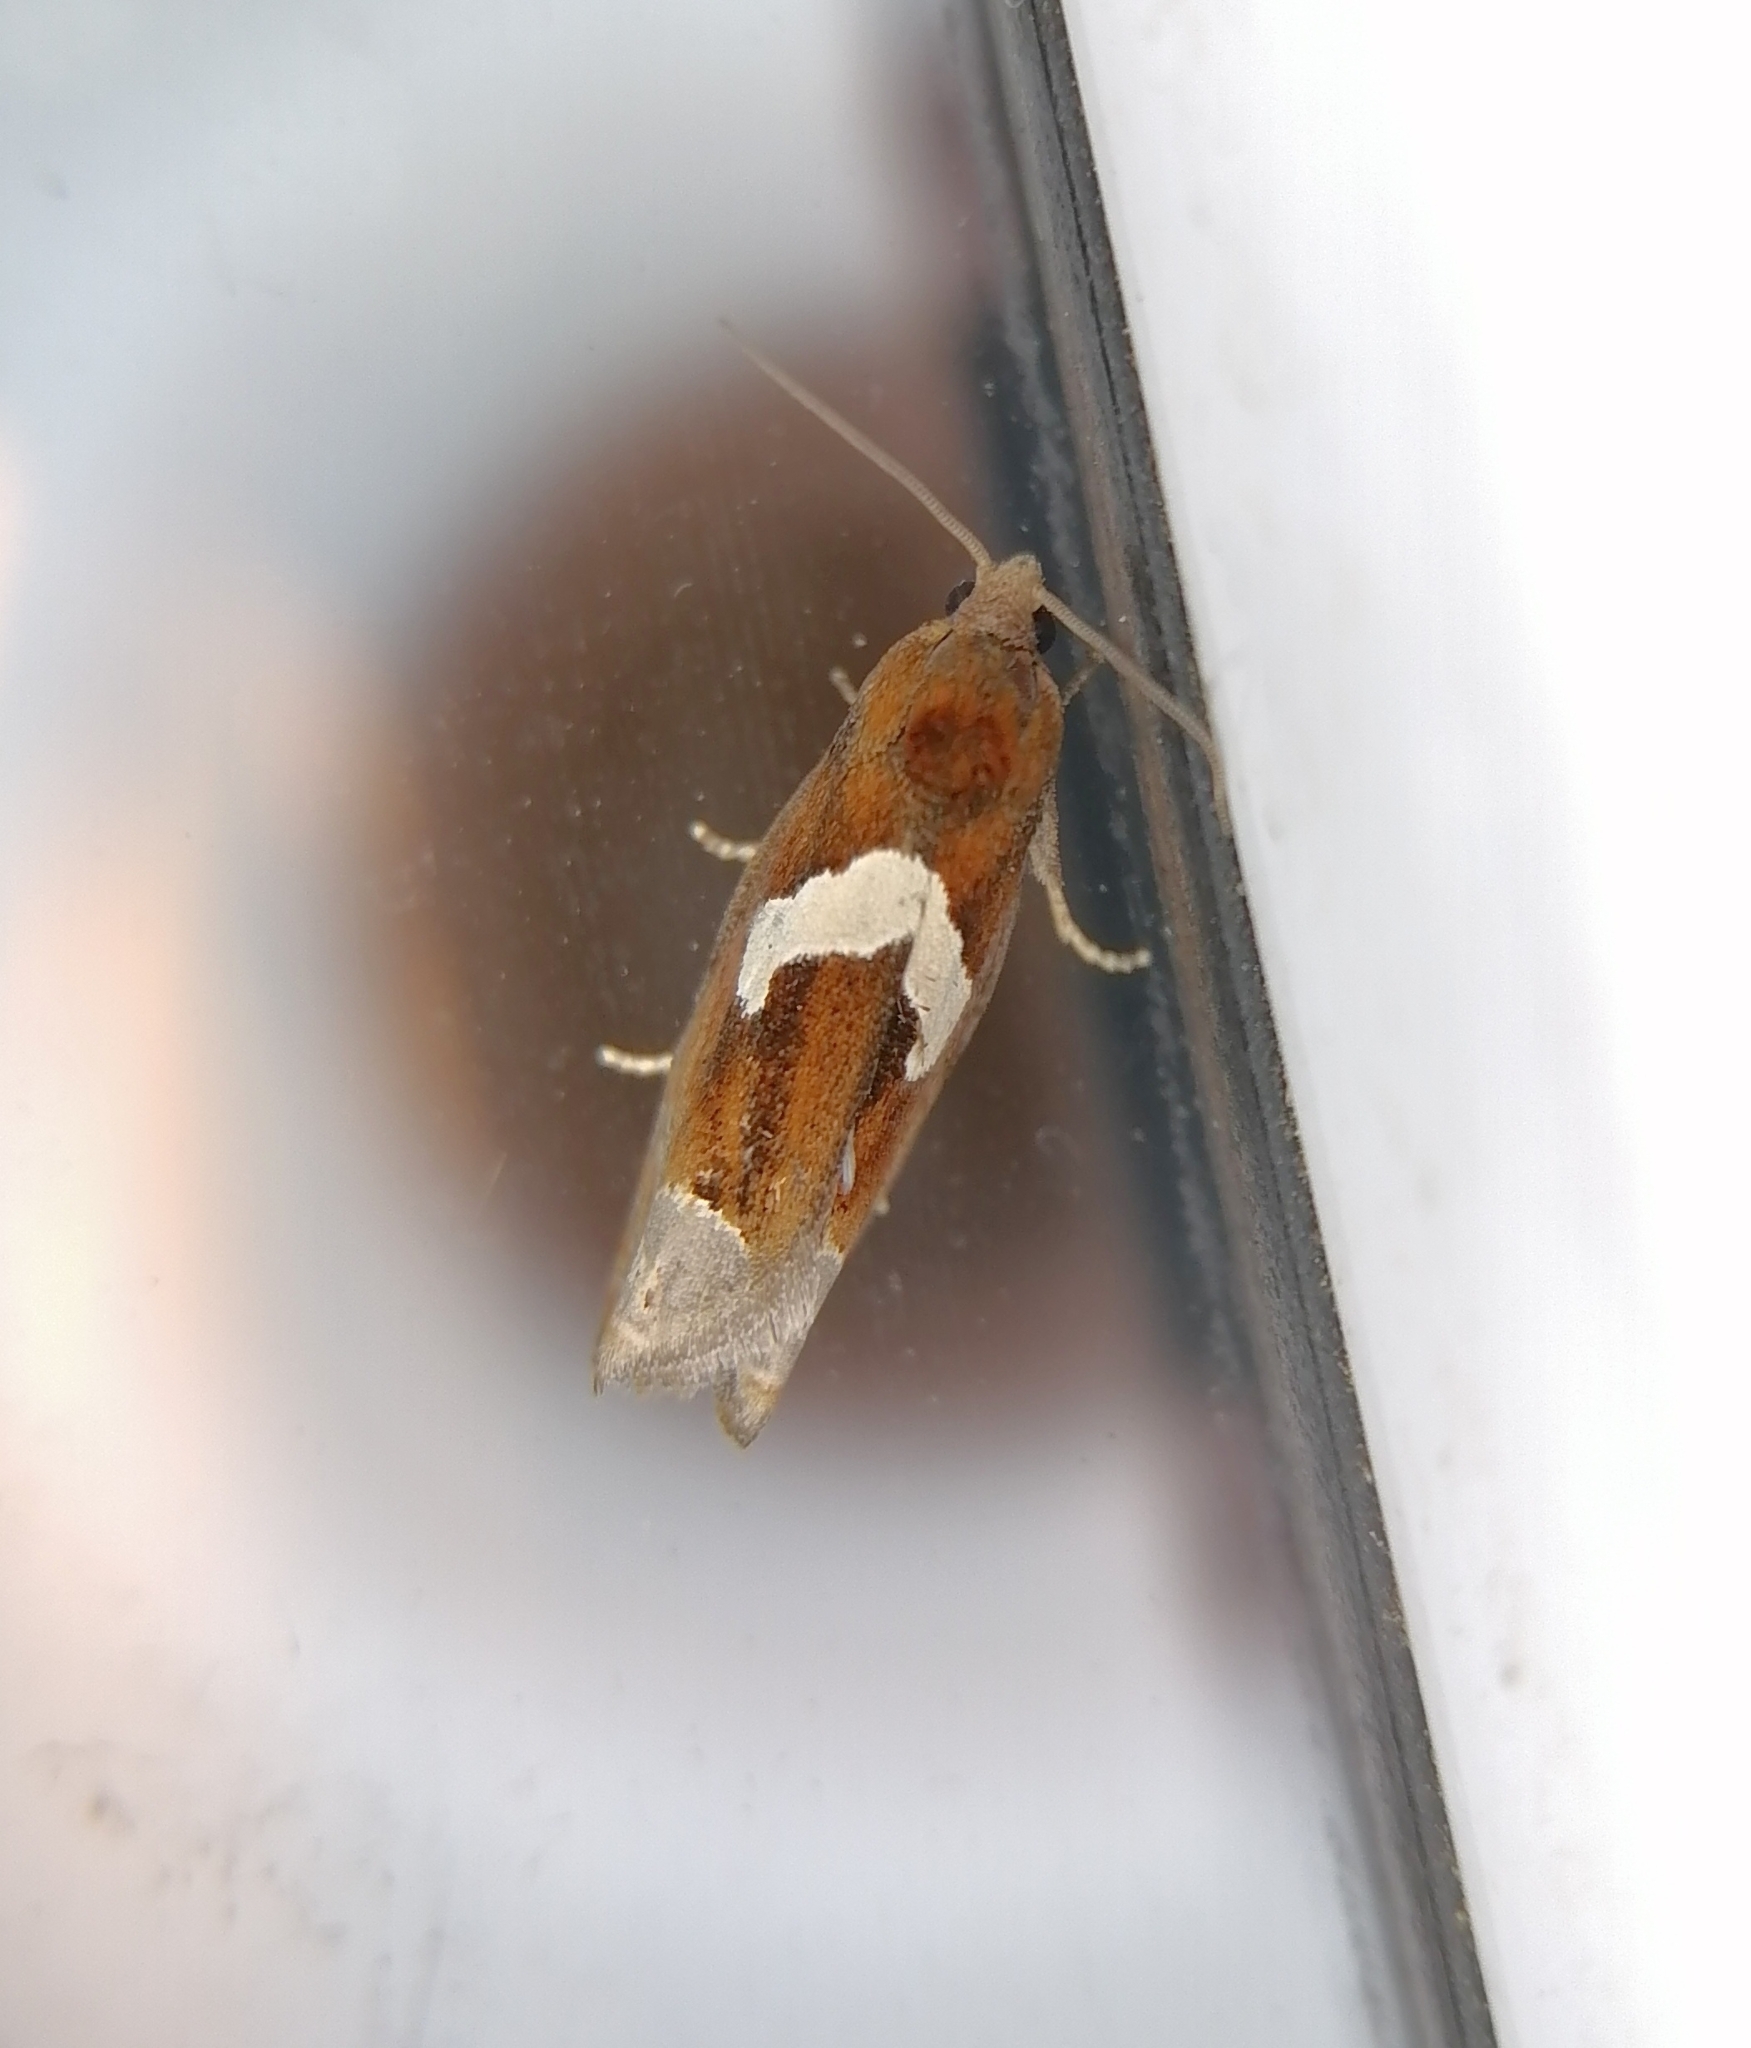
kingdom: Animalia
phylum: Arthropoda
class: Insecta
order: Lepidoptera
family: Tortricidae
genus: Epiblema
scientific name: Epiblema foenella
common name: White-foot bell
